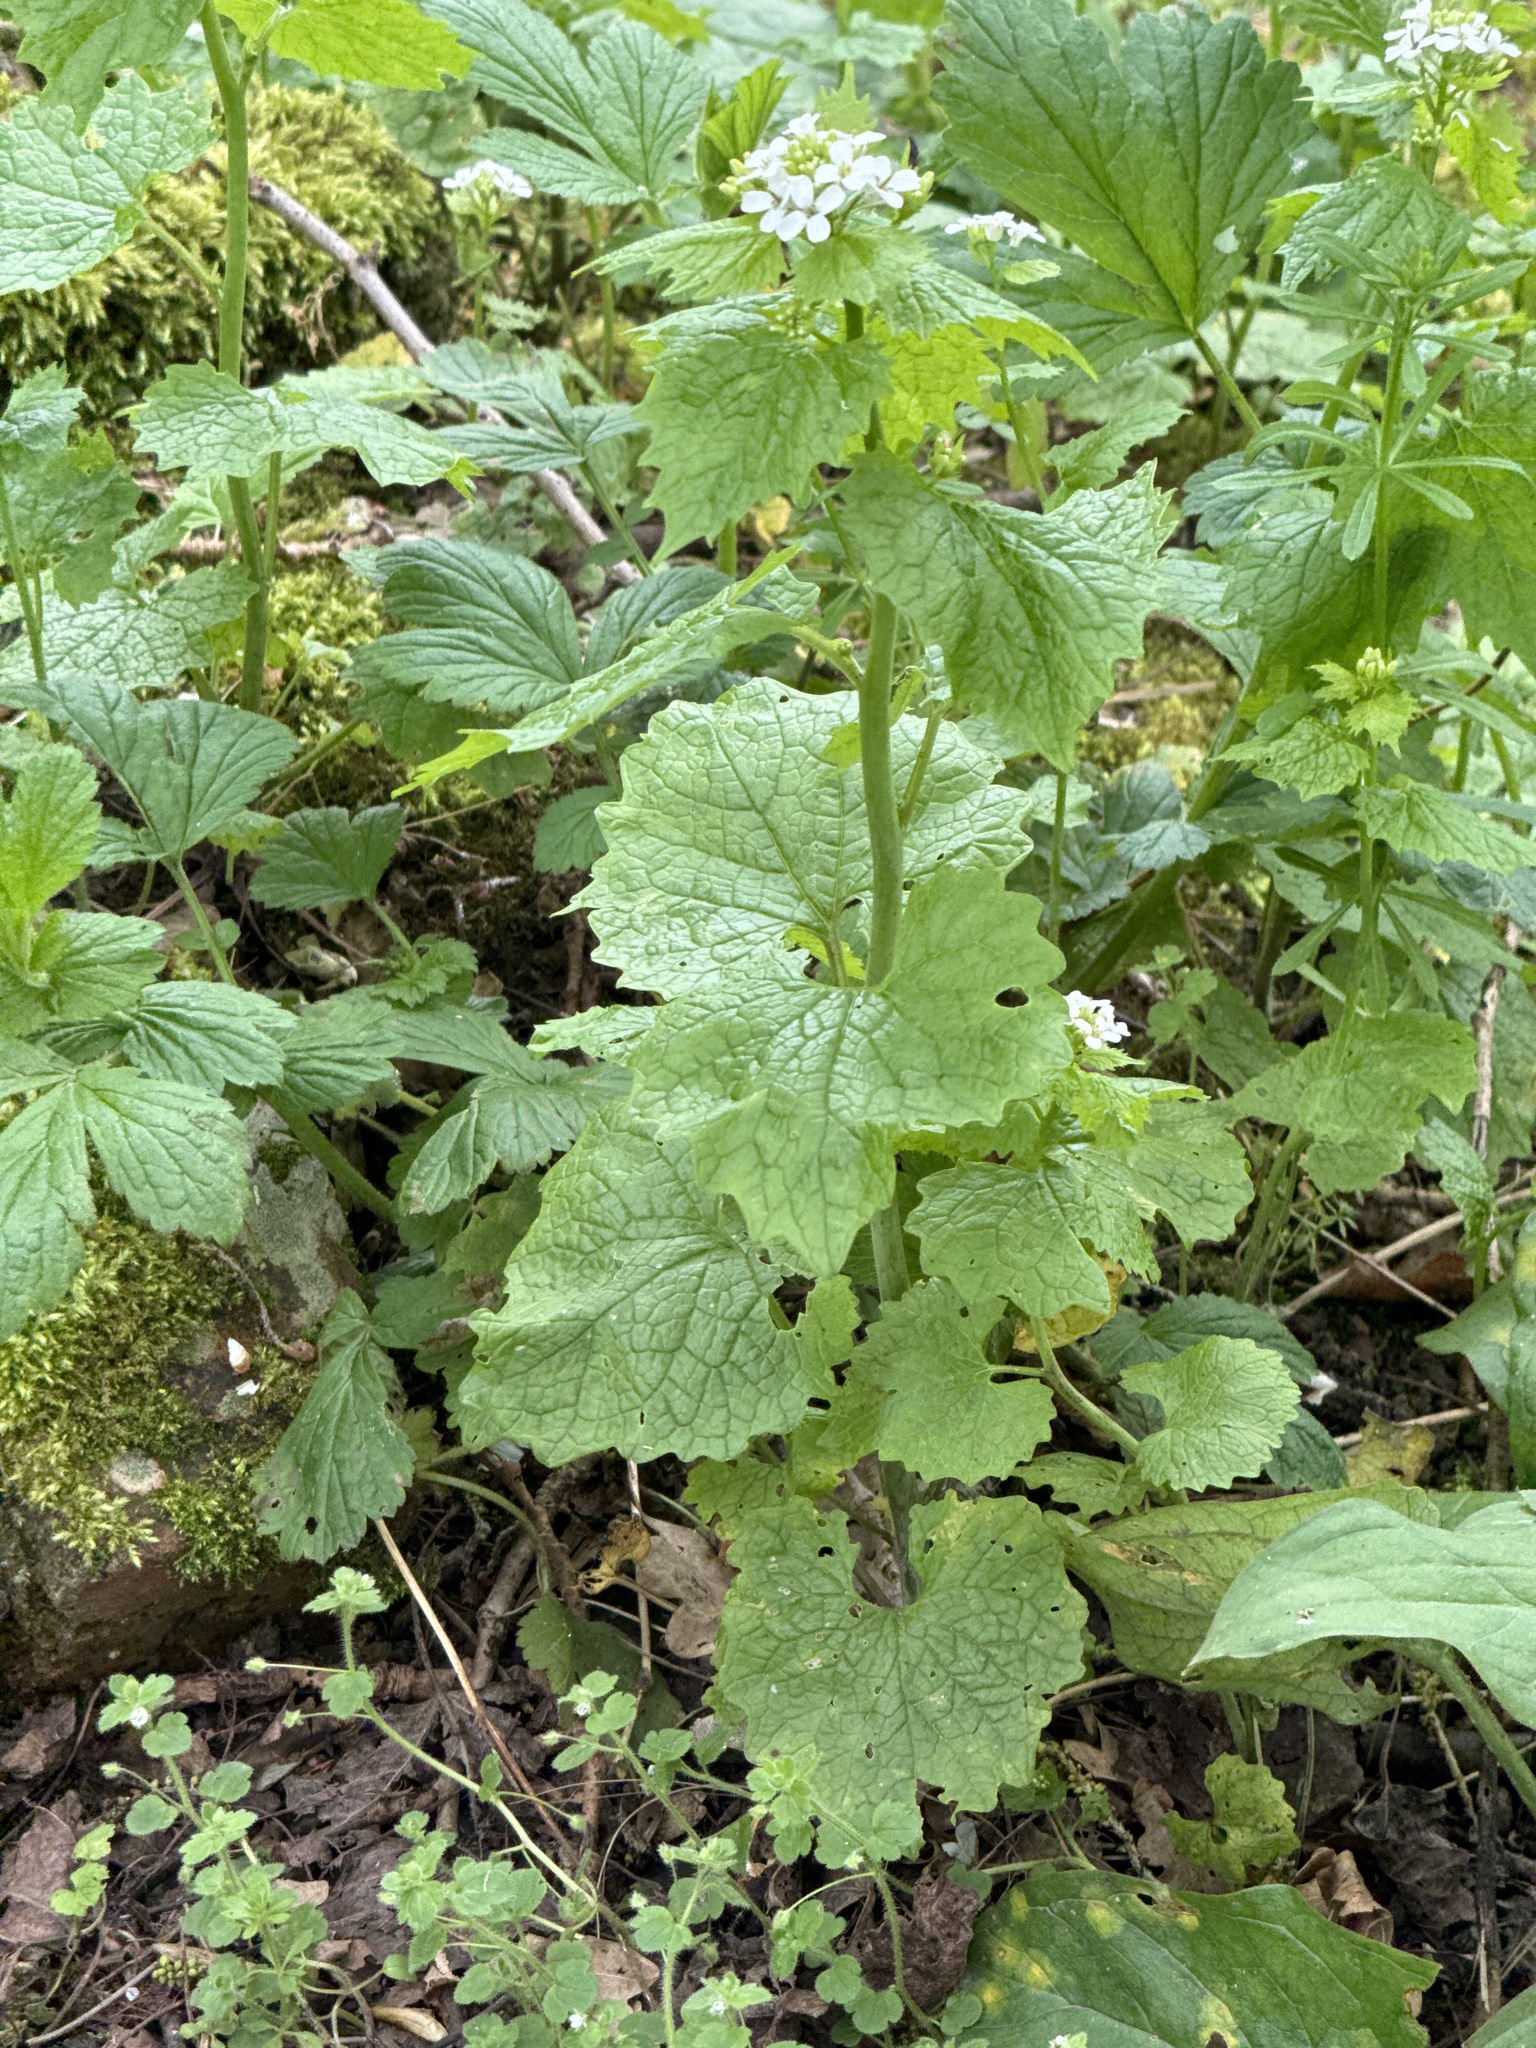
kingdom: Plantae
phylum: Tracheophyta
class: Magnoliopsida
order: Brassicales
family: Brassicaceae
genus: Alliaria
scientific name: Alliaria petiolata
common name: Garlic mustard
